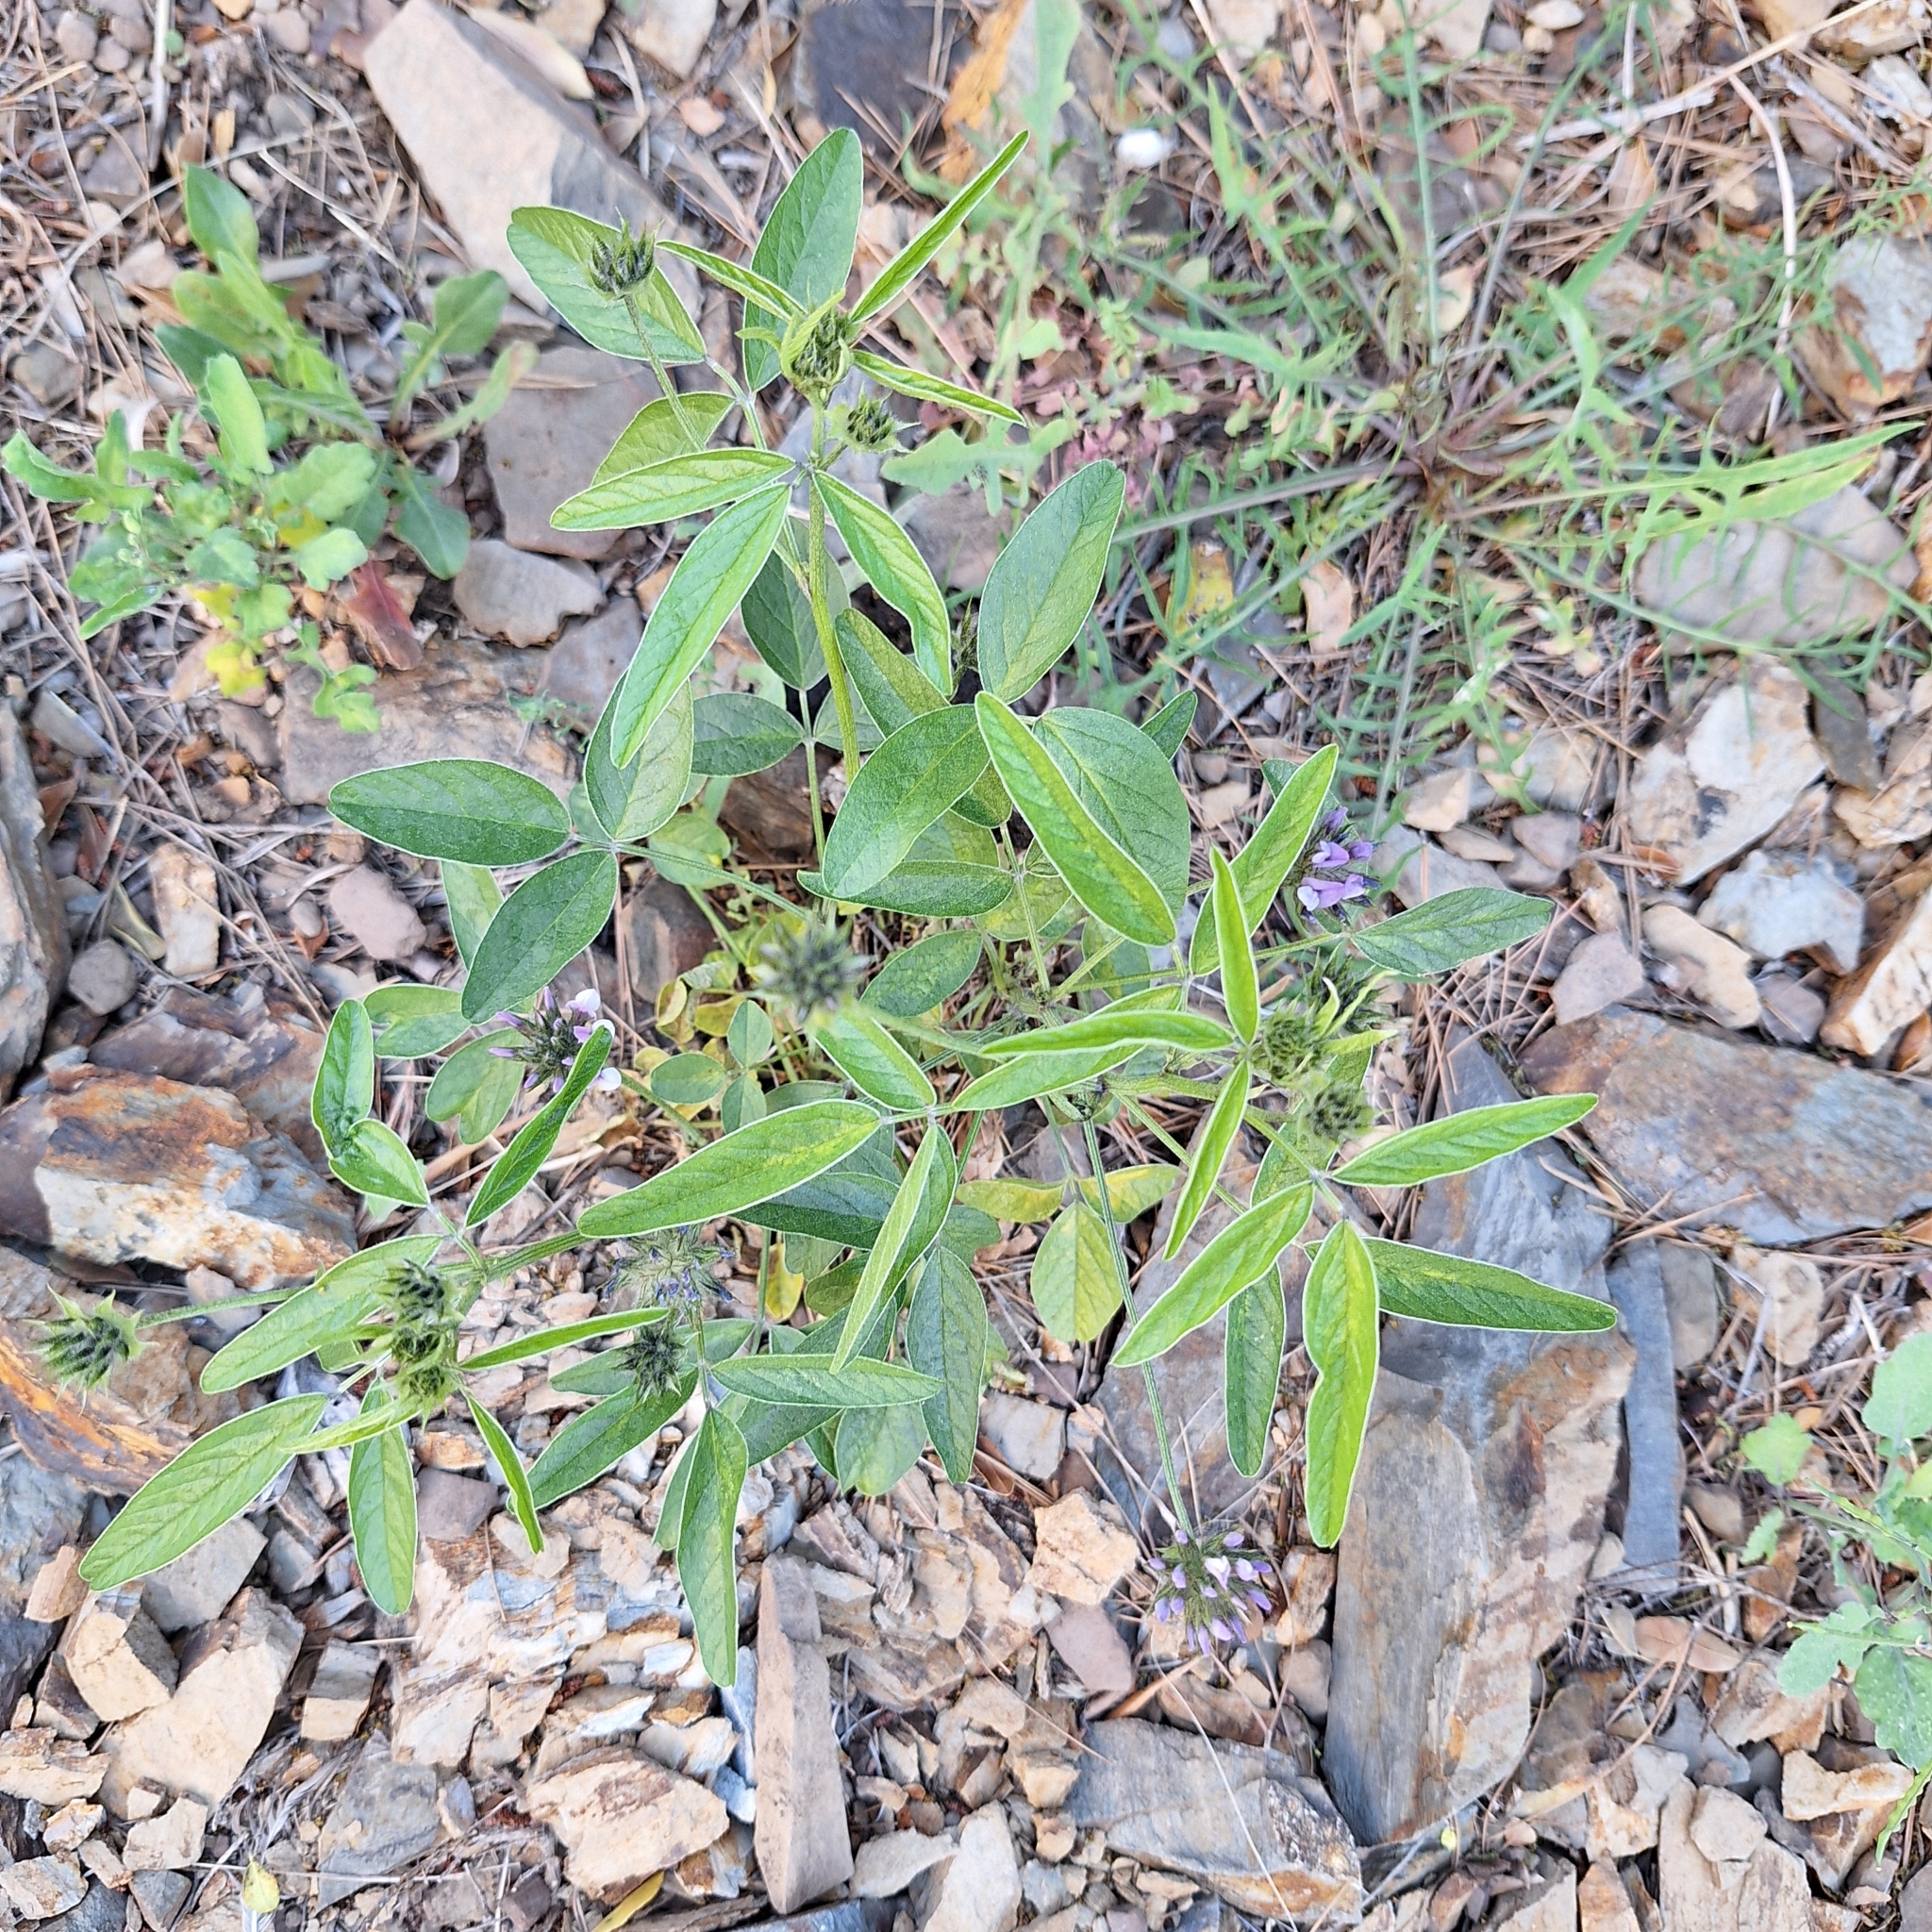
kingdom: Plantae
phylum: Tracheophyta
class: Magnoliopsida
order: Fabales
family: Fabaceae
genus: Bituminaria
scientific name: Bituminaria bituminosa
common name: Arabian pea
